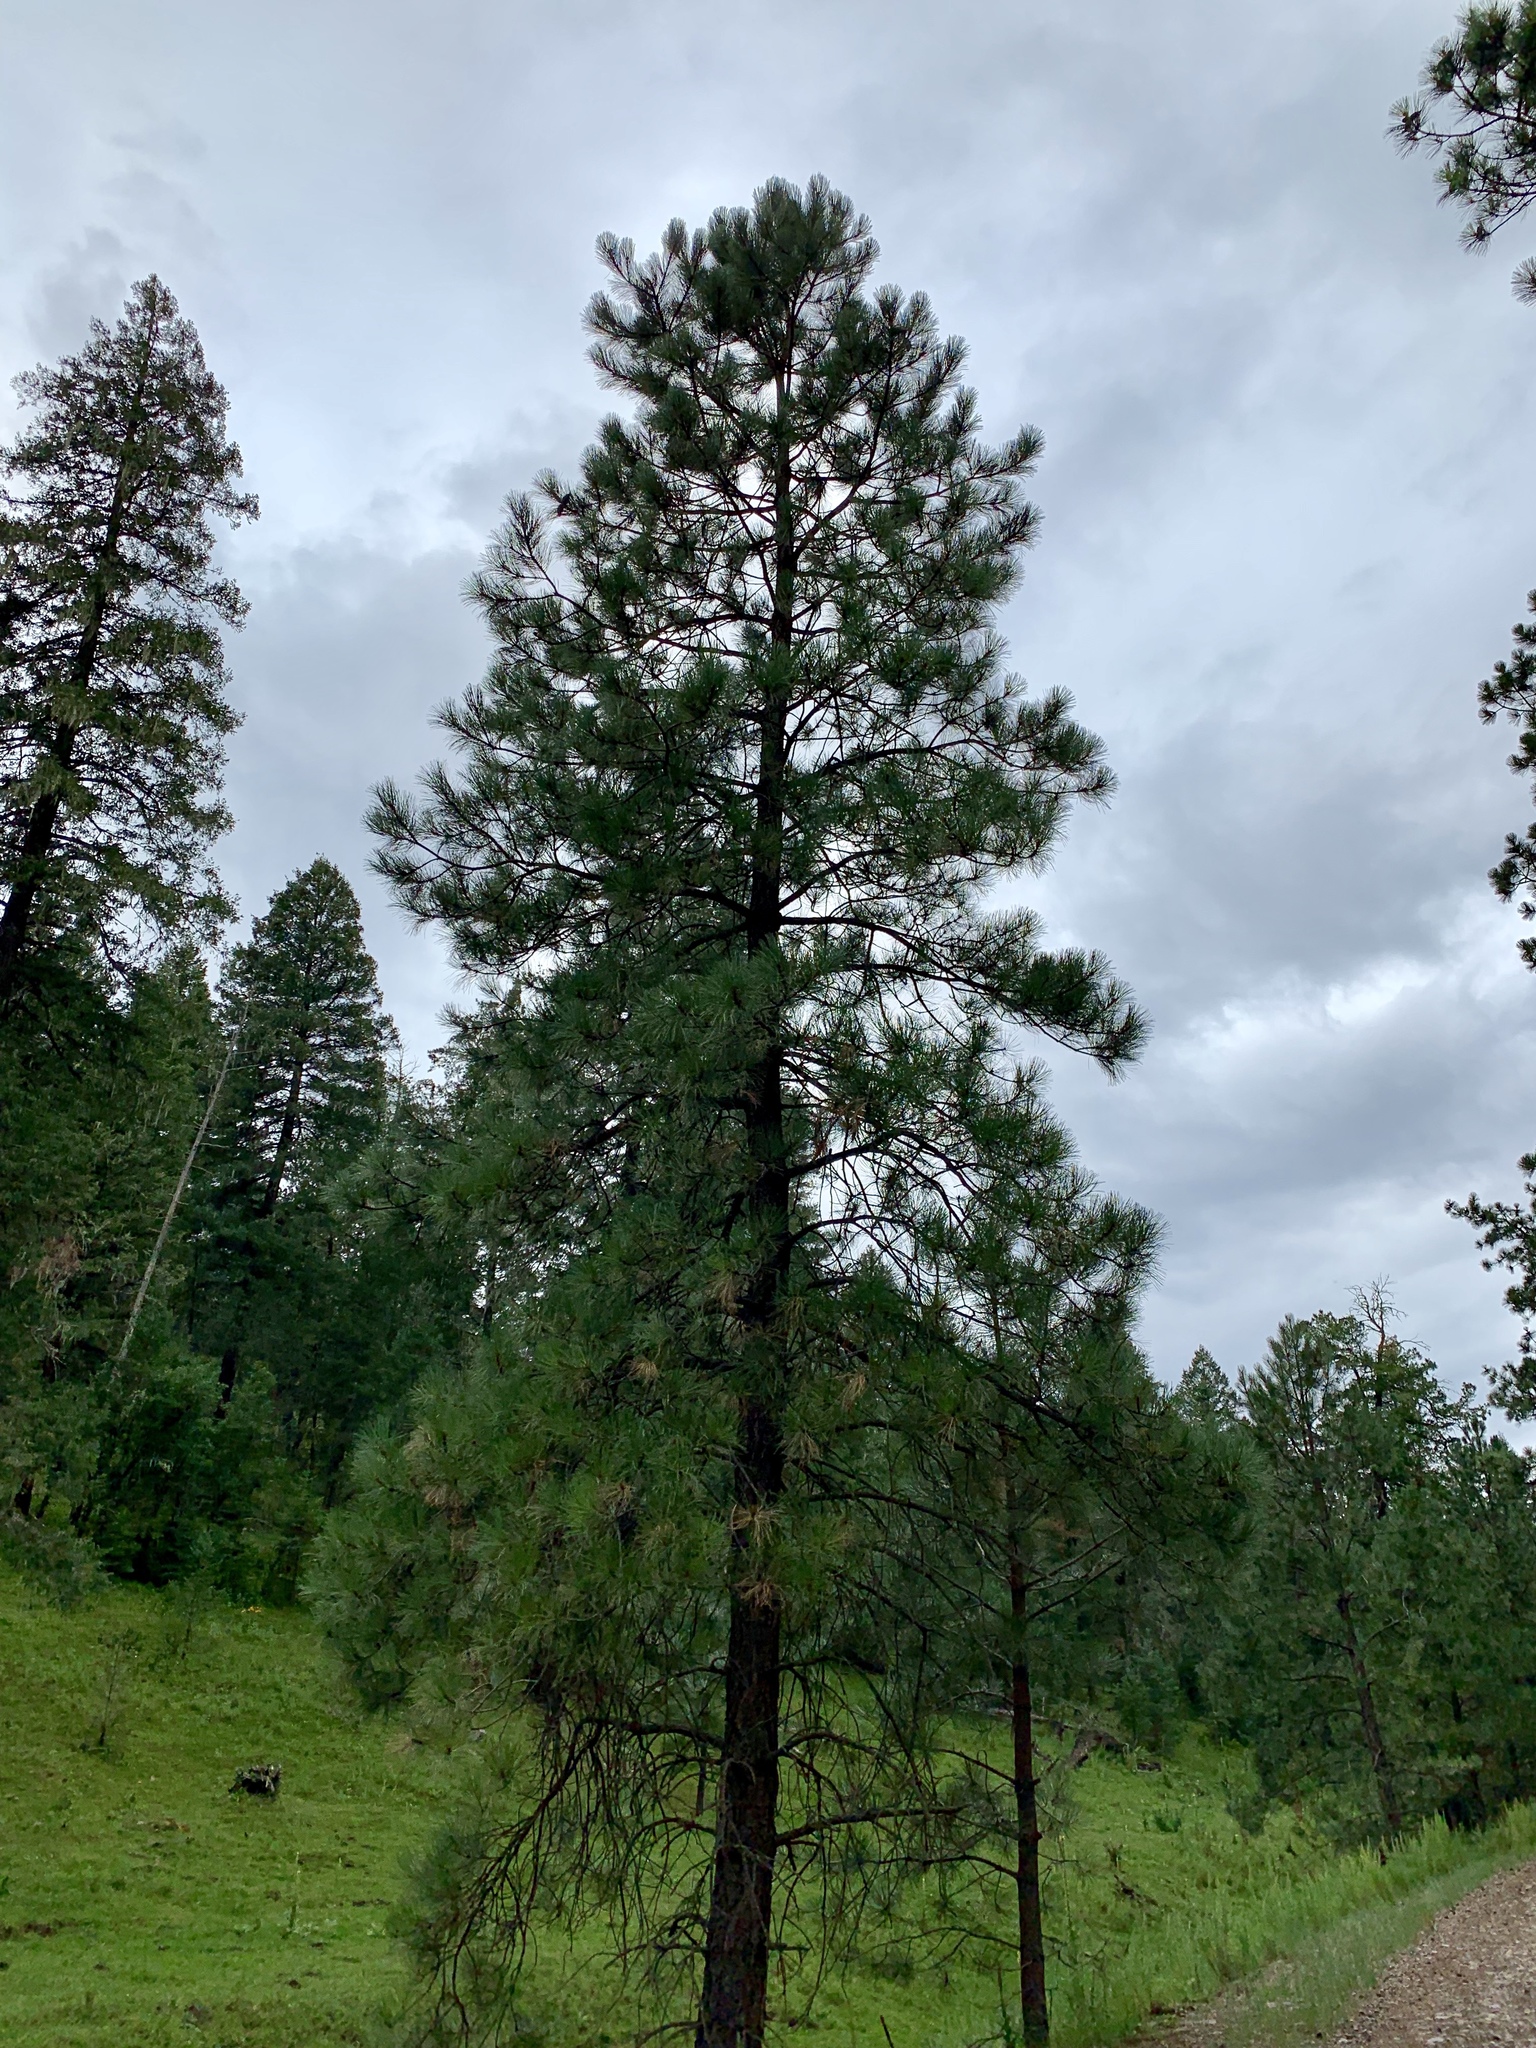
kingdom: Plantae
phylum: Tracheophyta
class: Pinopsida
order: Pinales
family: Pinaceae
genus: Pinus
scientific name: Pinus ponderosa
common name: Western yellow-pine
